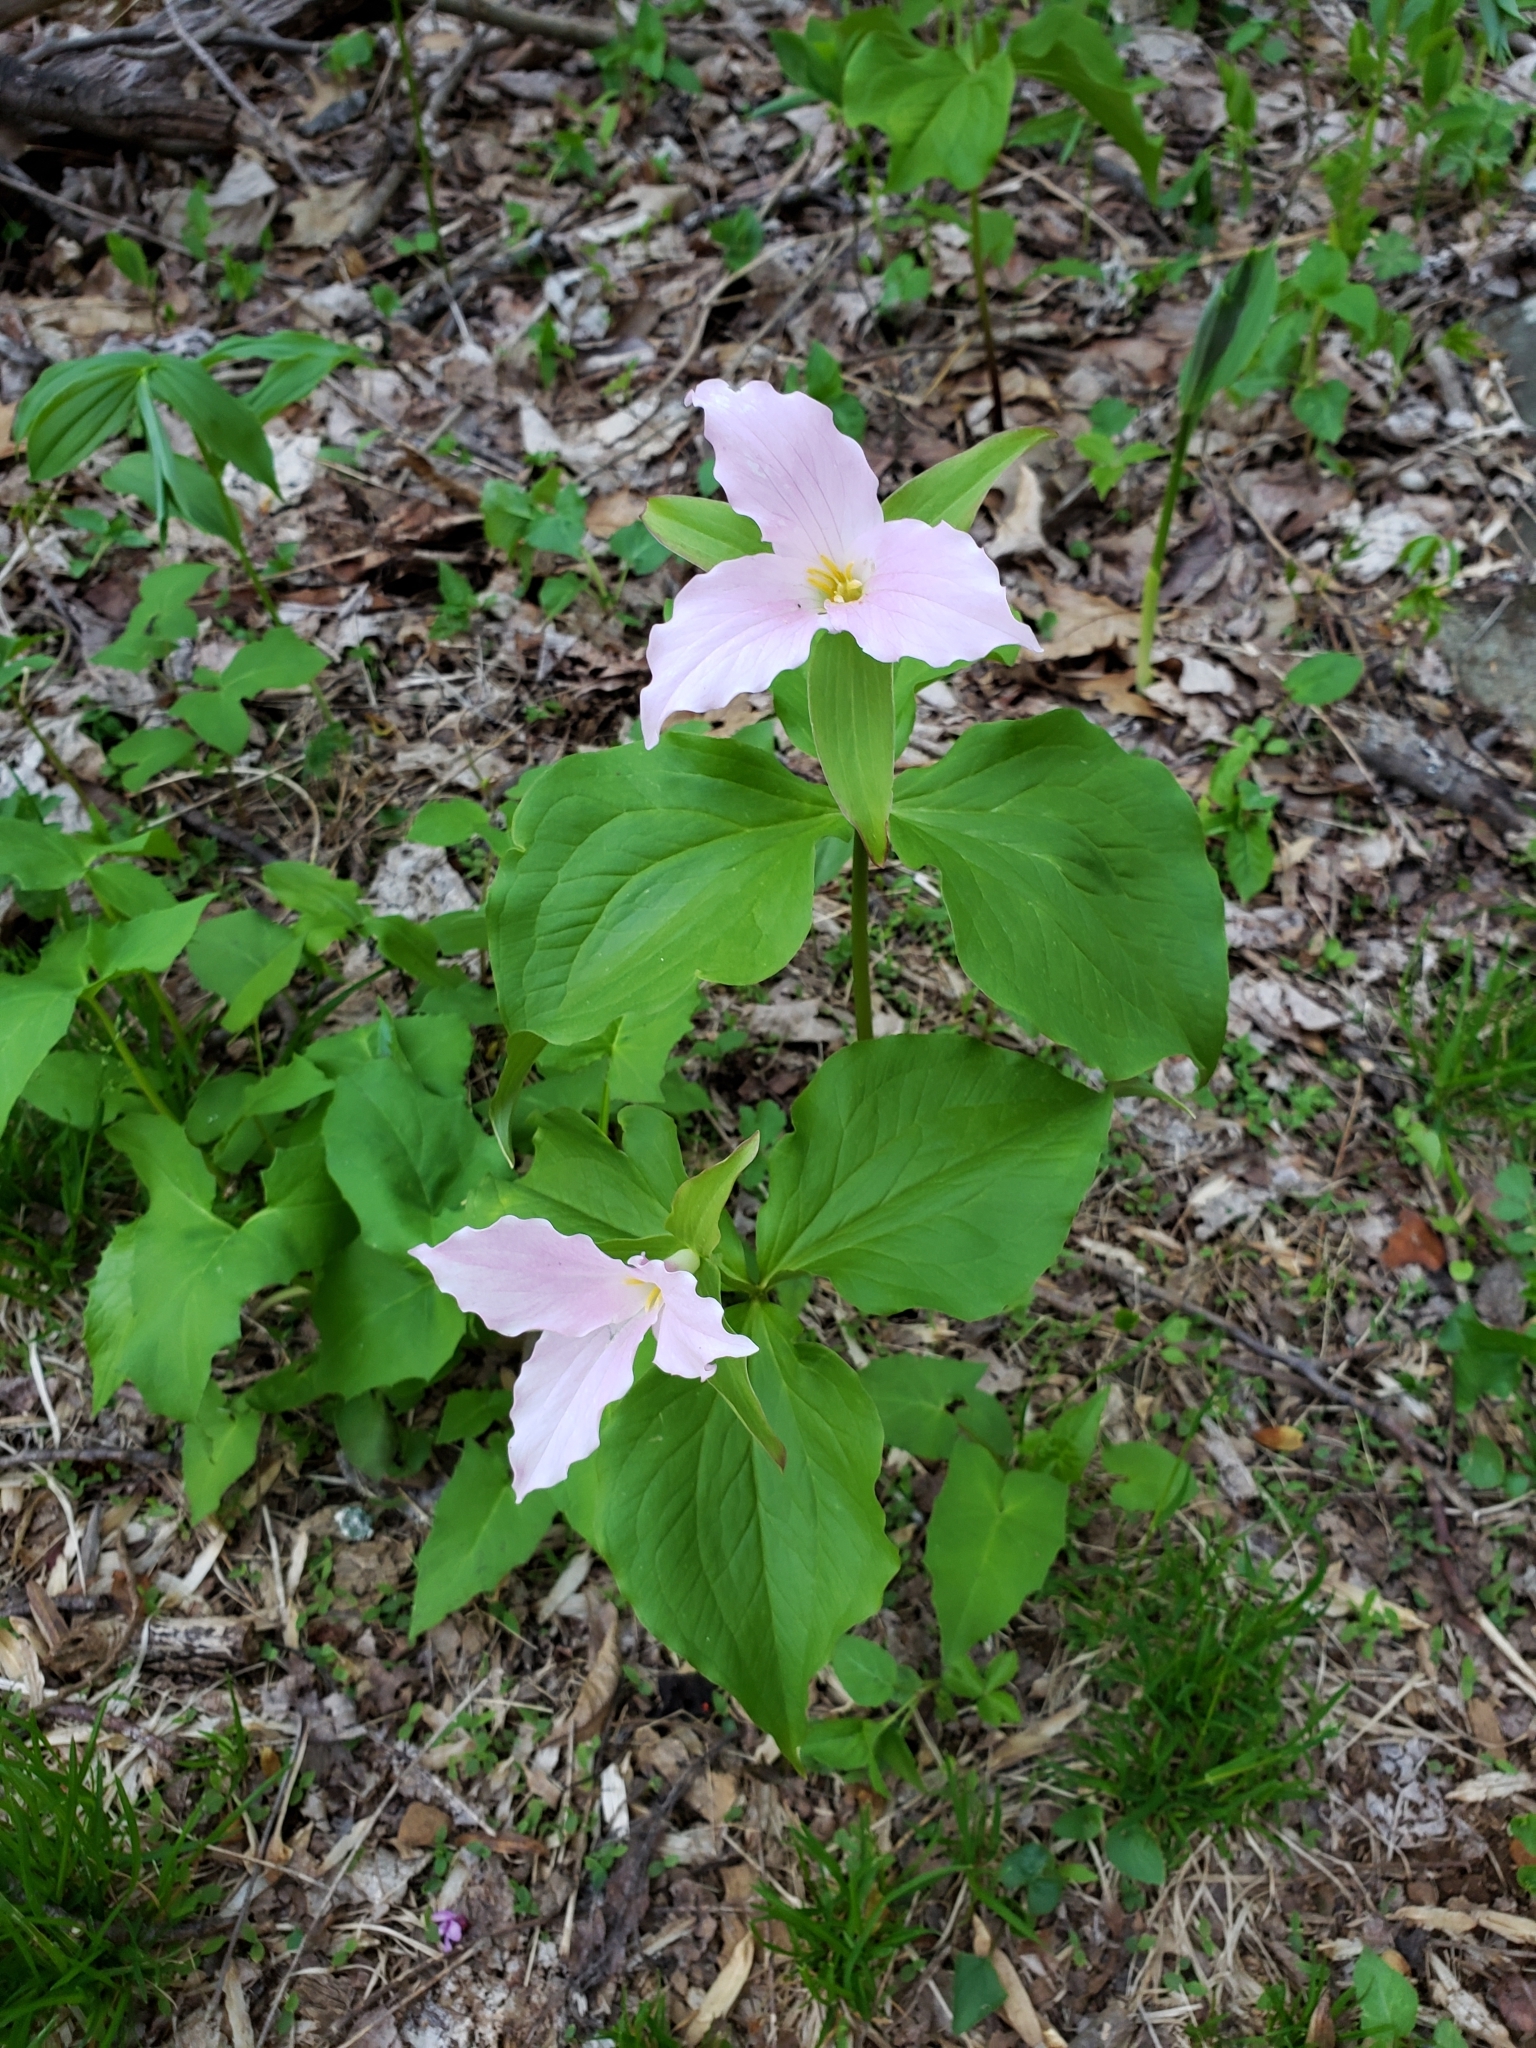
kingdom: Plantae
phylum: Tracheophyta
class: Liliopsida
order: Liliales
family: Melanthiaceae
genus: Trillium
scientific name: Trillium grandiflorum
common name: Great white trillium
